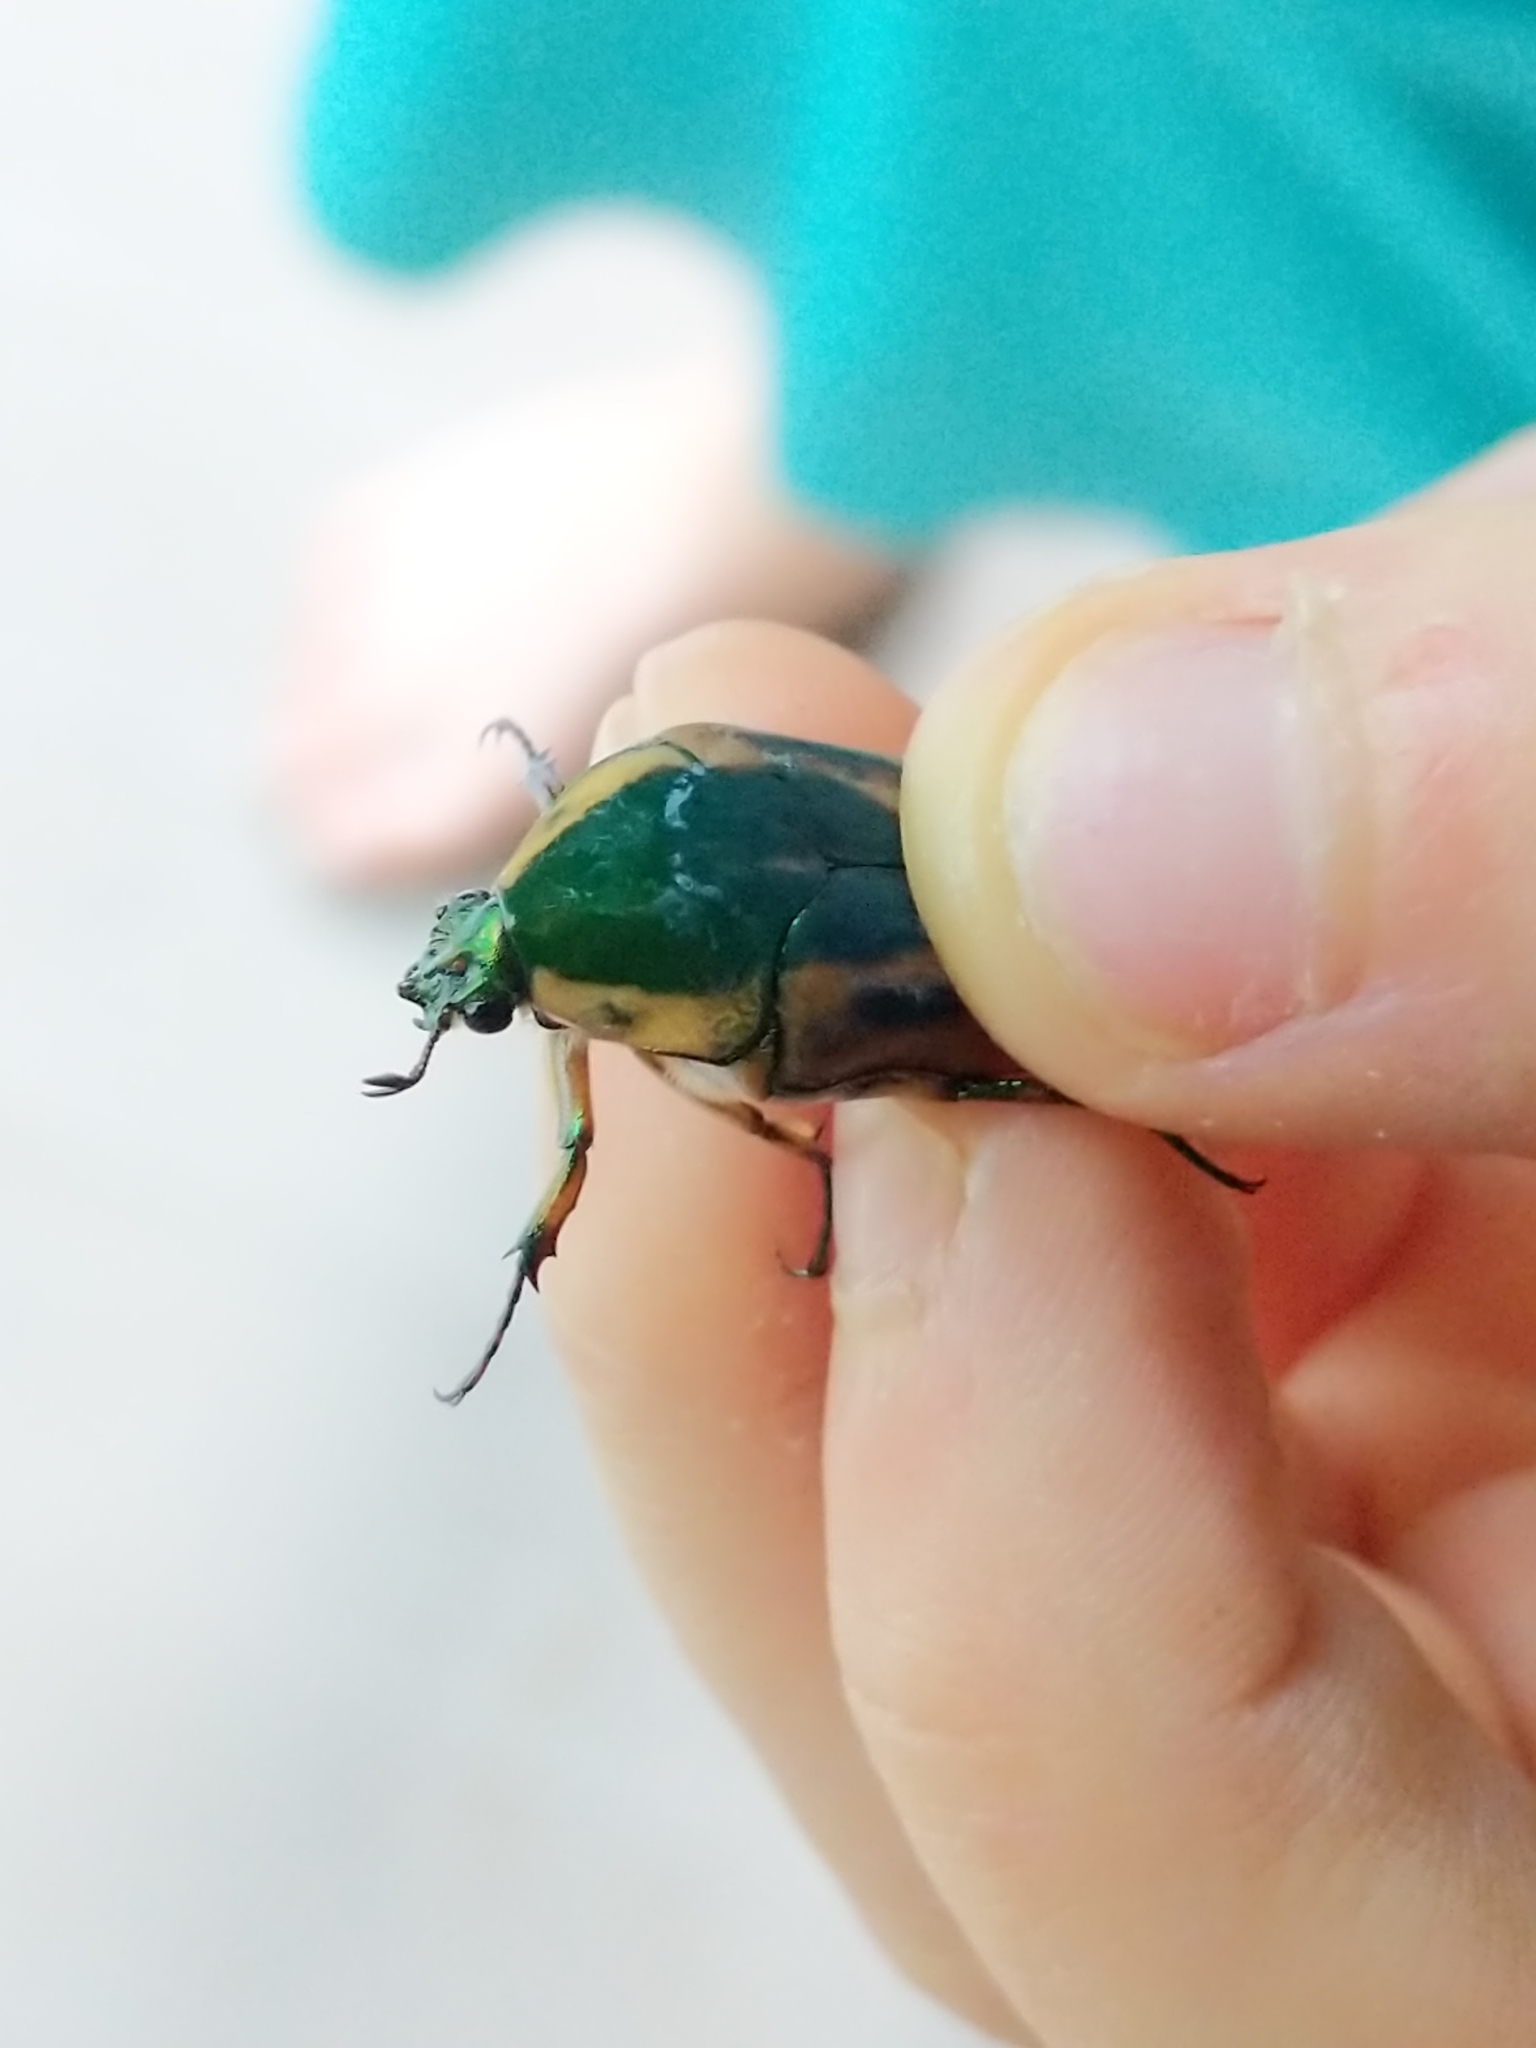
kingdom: Animalia
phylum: Arthropoda
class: Insecta
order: Coleoptera
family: Scarabaeidae
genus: Cotinis
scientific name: Cotinis nitida
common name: Common green june beetle
